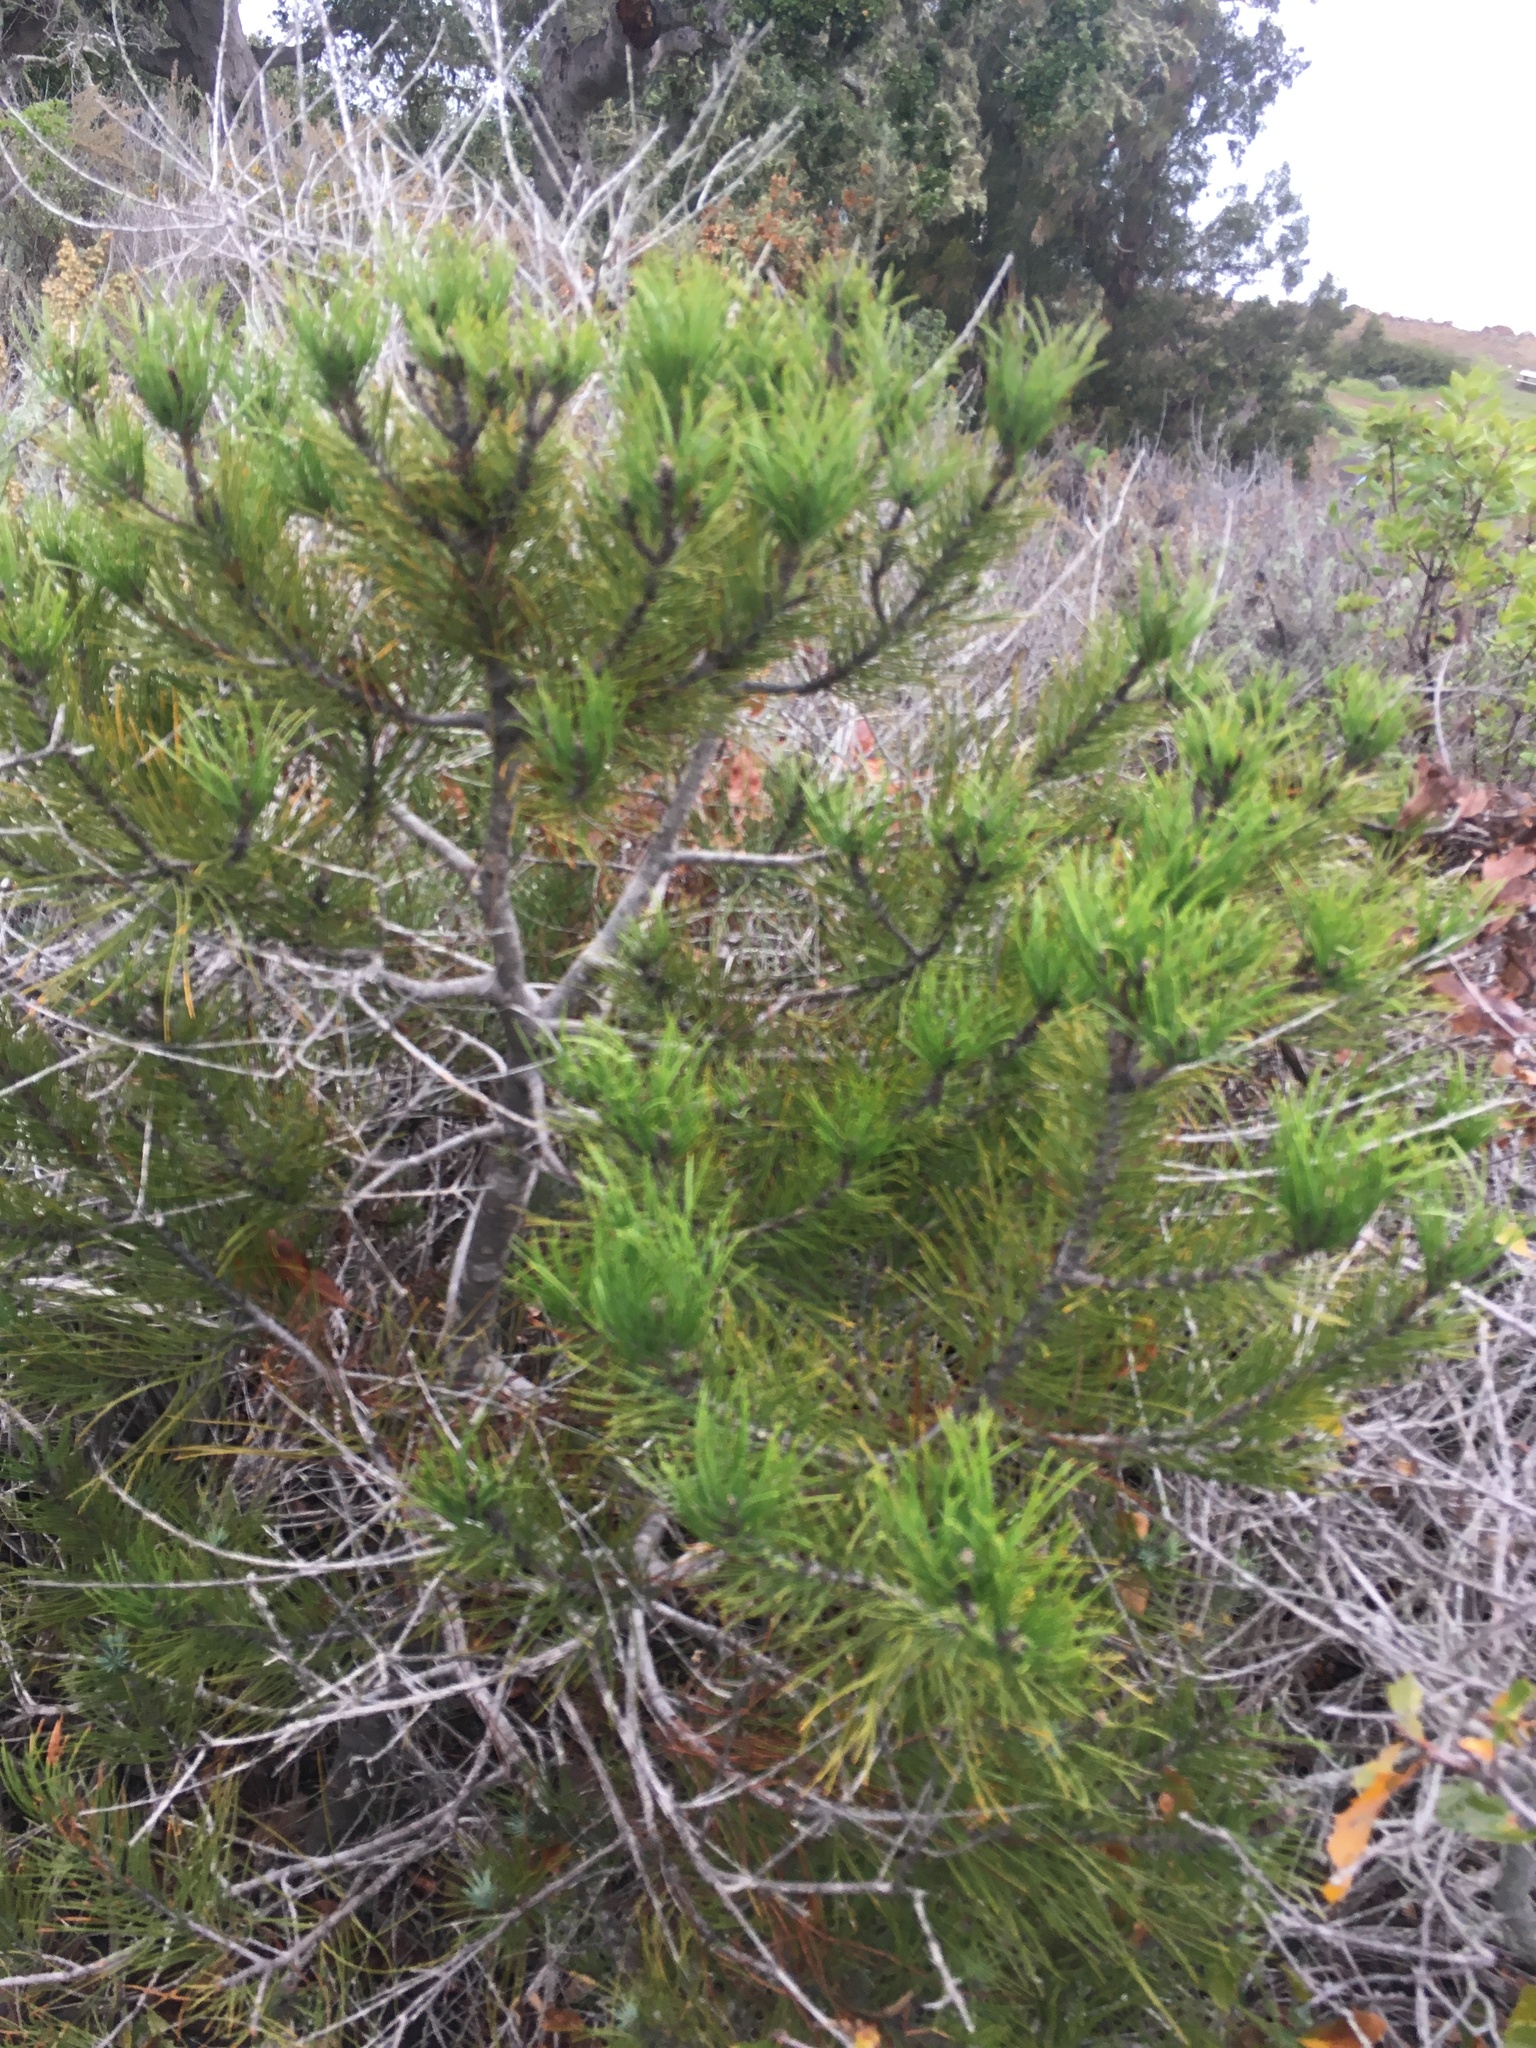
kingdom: Plantae
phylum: Tracheophyta
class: Pinopsida
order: Pinales
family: Pinaceae
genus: Pinus
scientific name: Pinus muricata
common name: Bishop pine
